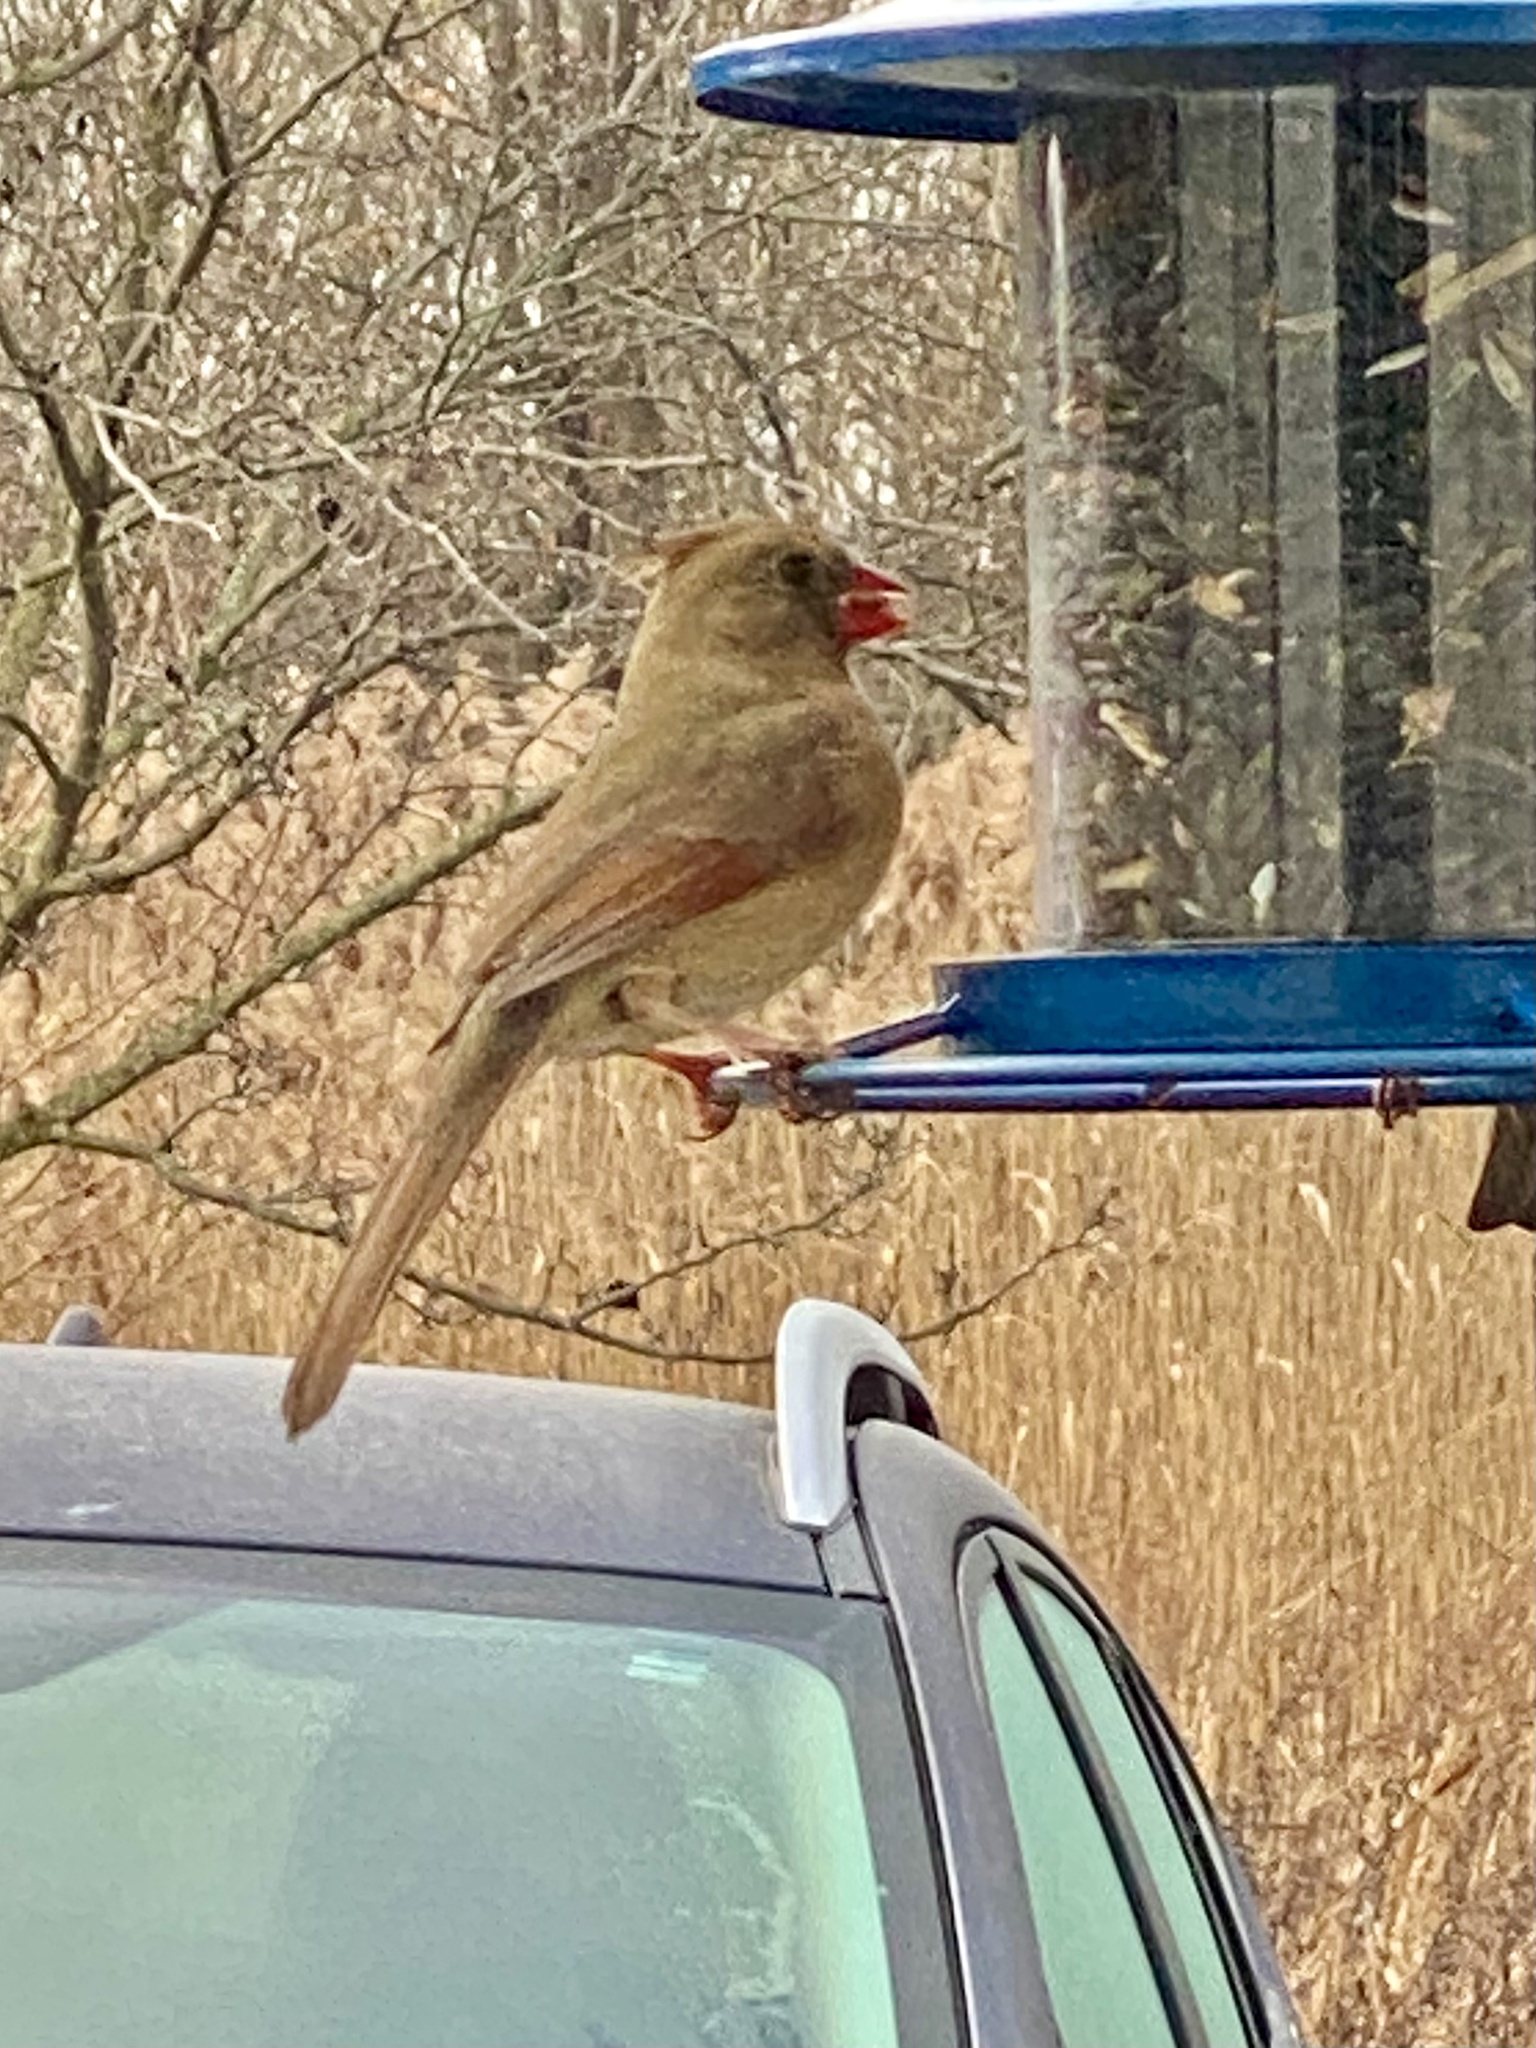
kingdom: Animalia
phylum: Chordata
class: Aves
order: Passeriformes
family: Cardinalidae
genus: Cardinalis
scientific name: Cardinalis cardinalis
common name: Northern cardinal
